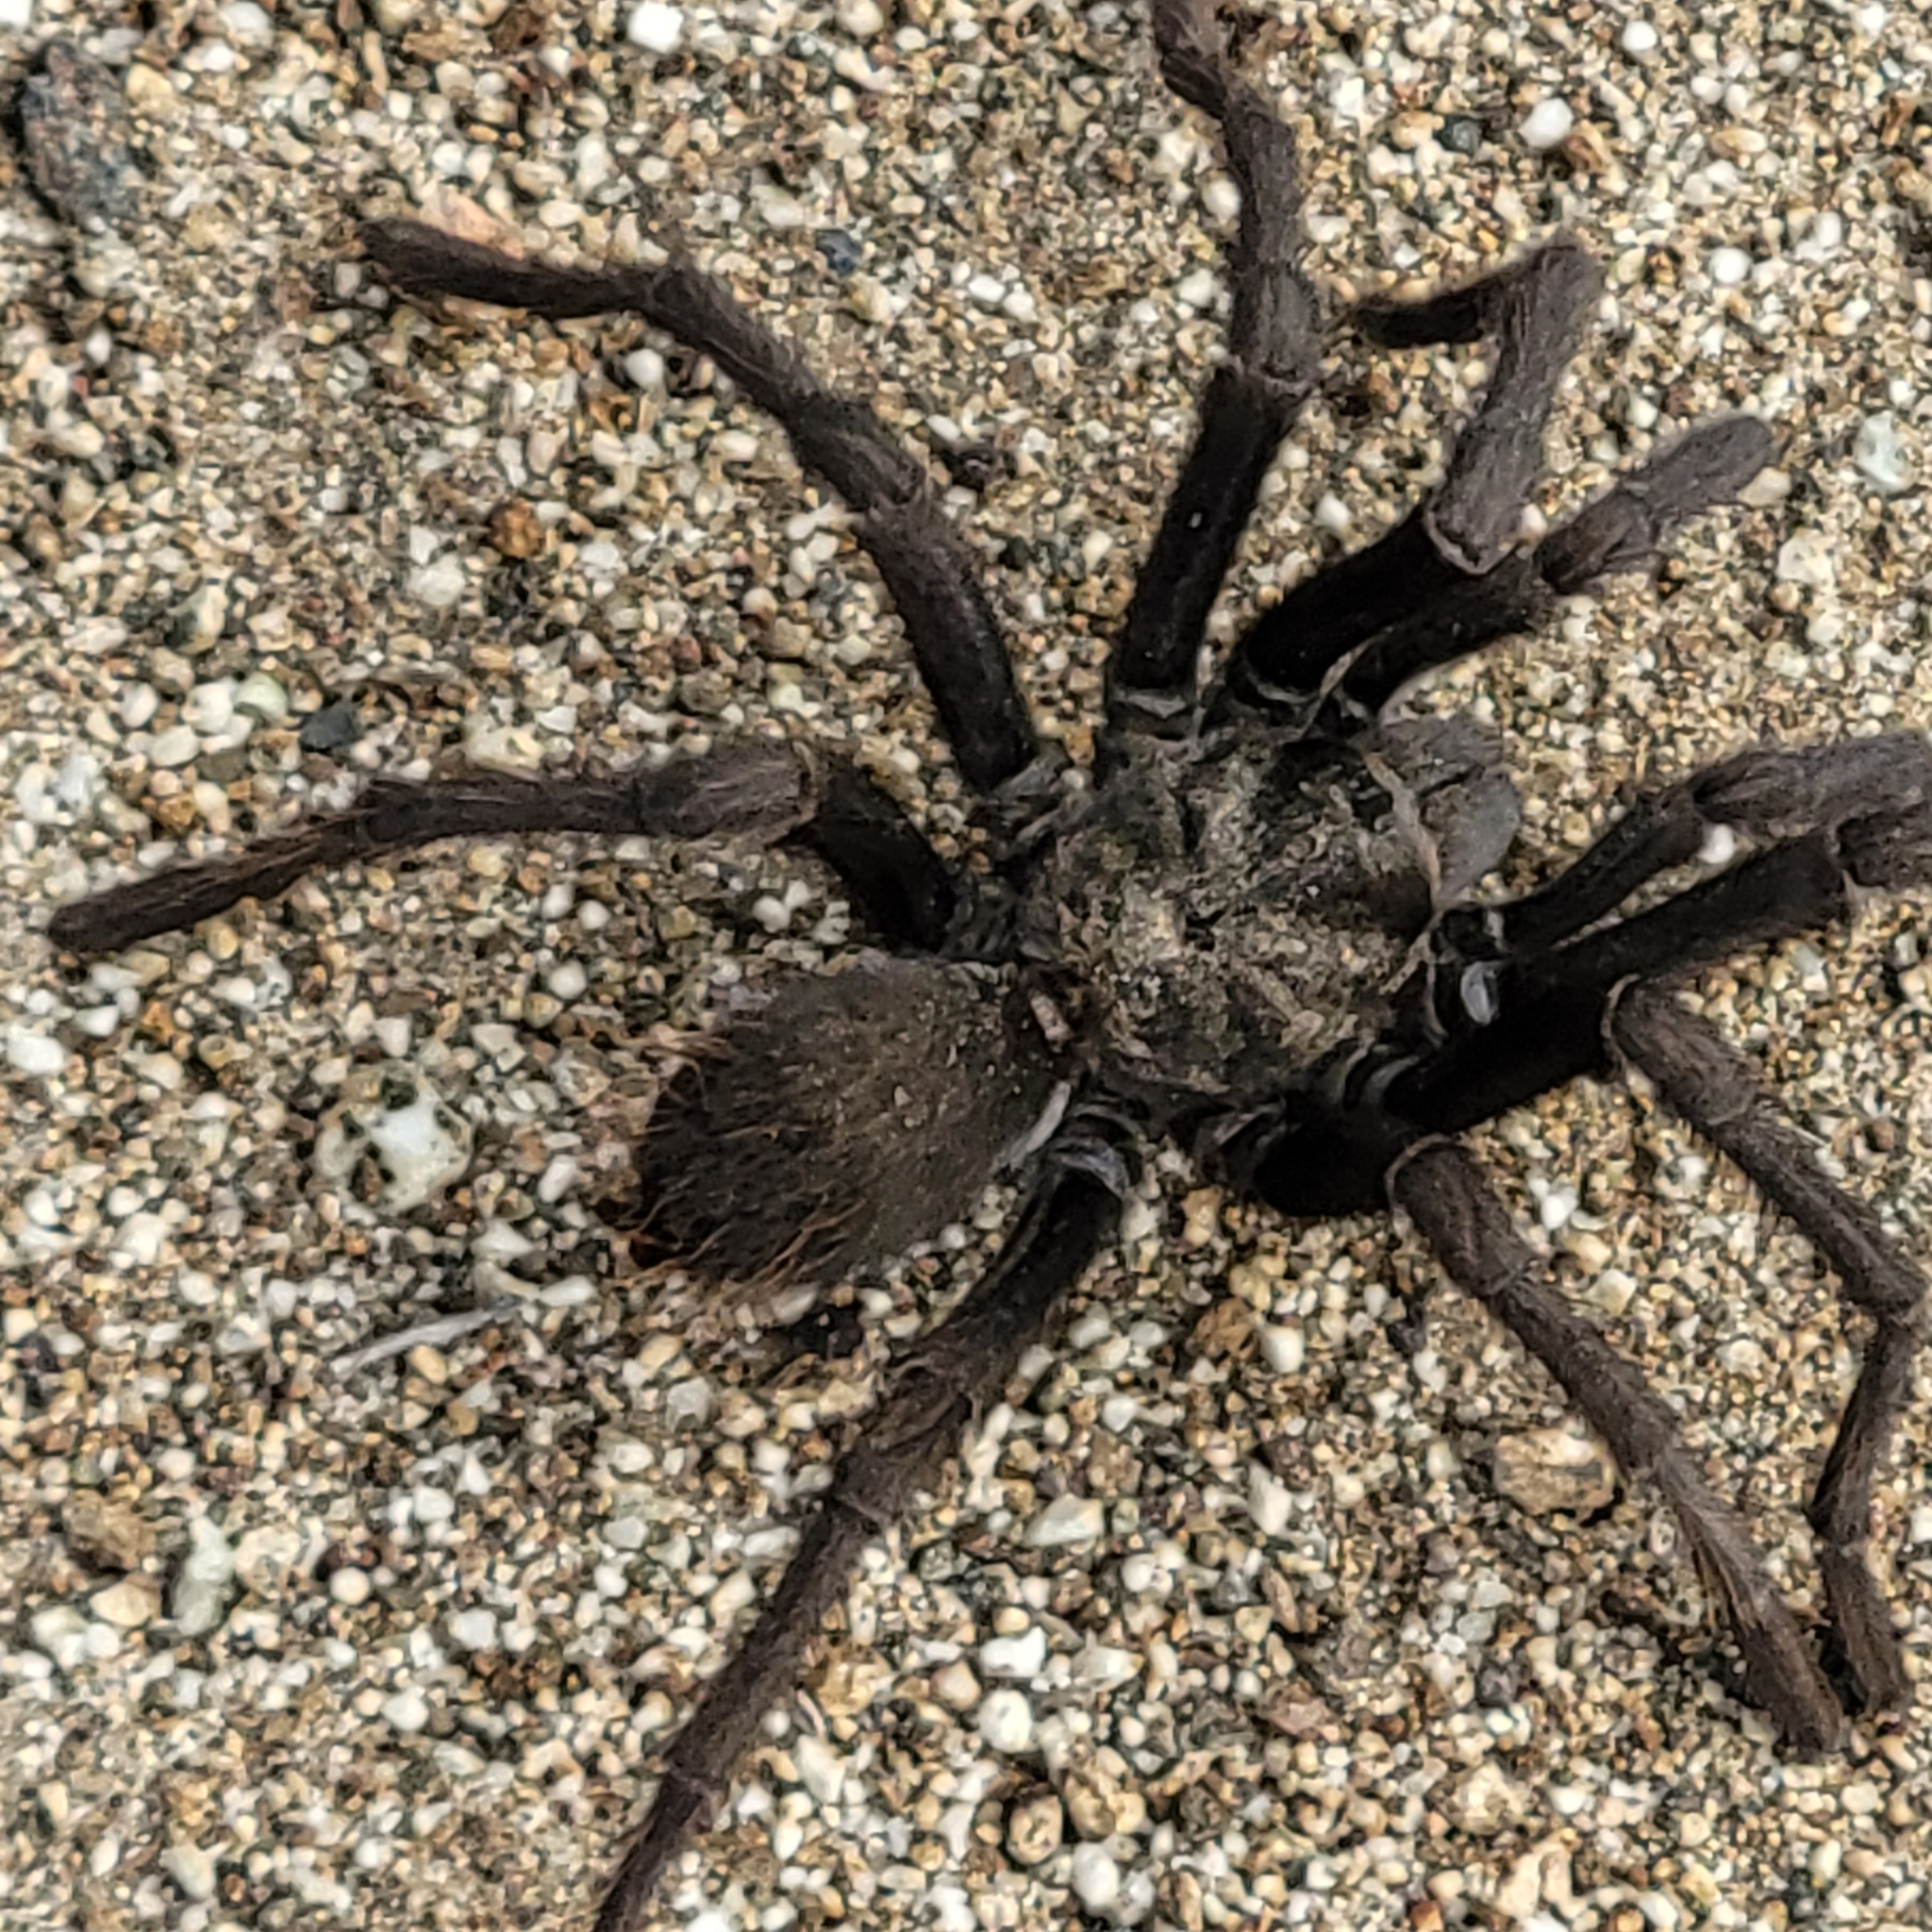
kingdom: Animalia
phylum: Arthropoda
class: Arachnida
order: Araneae
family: Theraphosidae
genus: Aphonopelma
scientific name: Aphonopelma steindachneri
